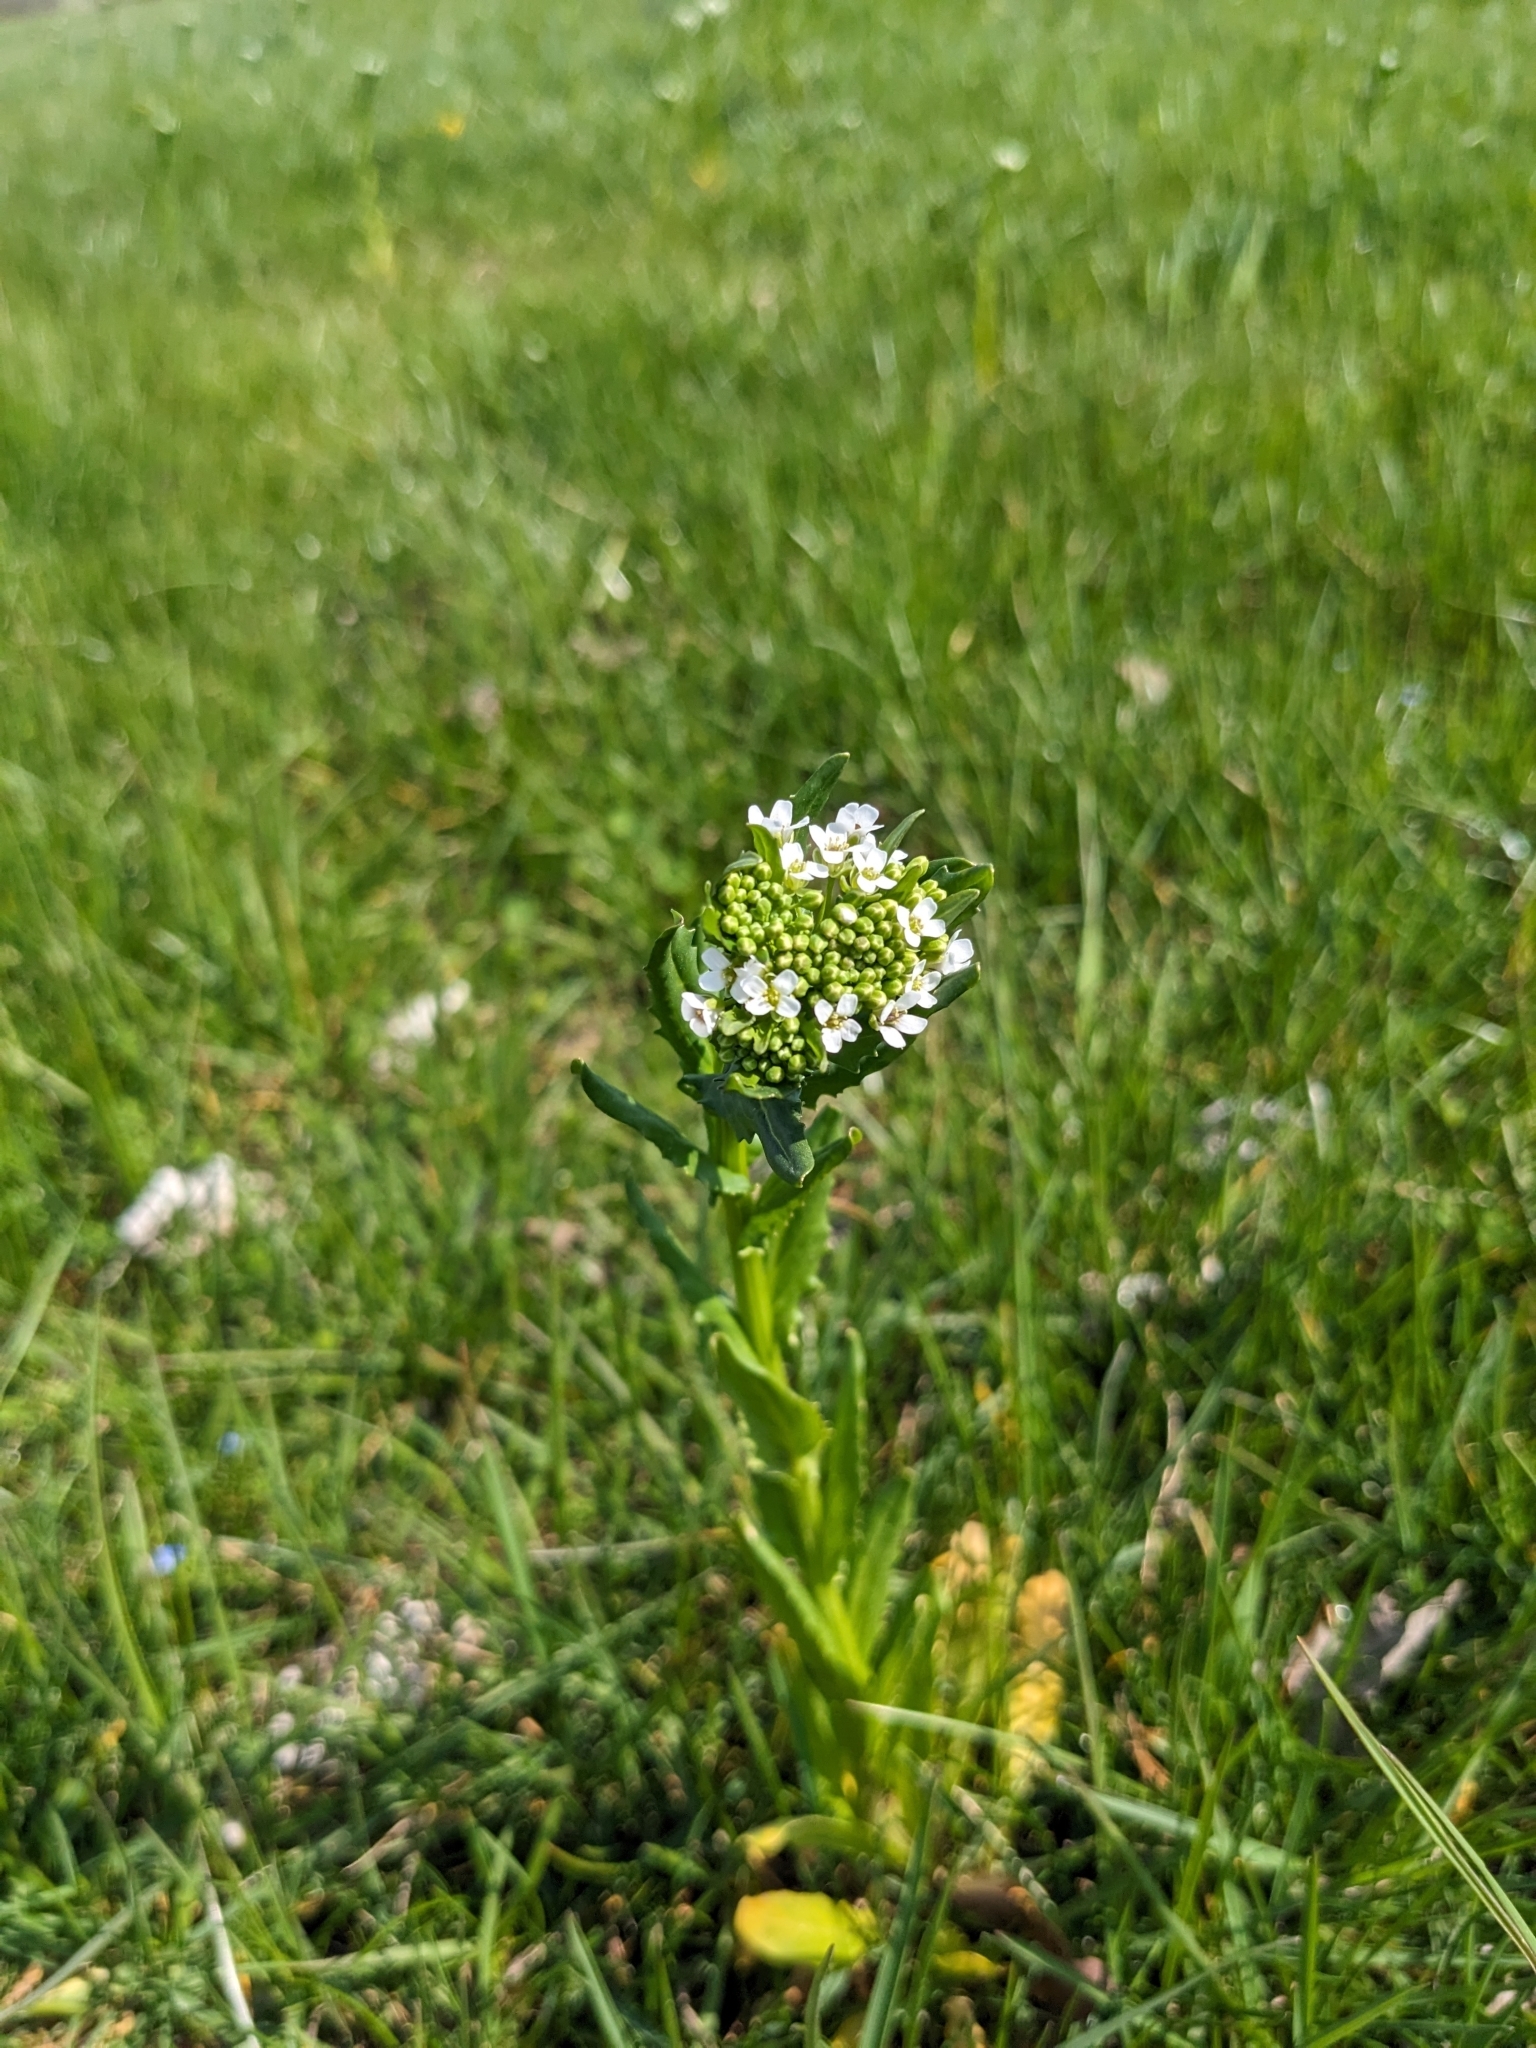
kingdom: Plantae
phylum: Tracheophyta
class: Magnoliopsida
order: Brassicales
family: Brassicaceae
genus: Thlaspi
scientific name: Thlaspi arvense
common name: Field pennycress
